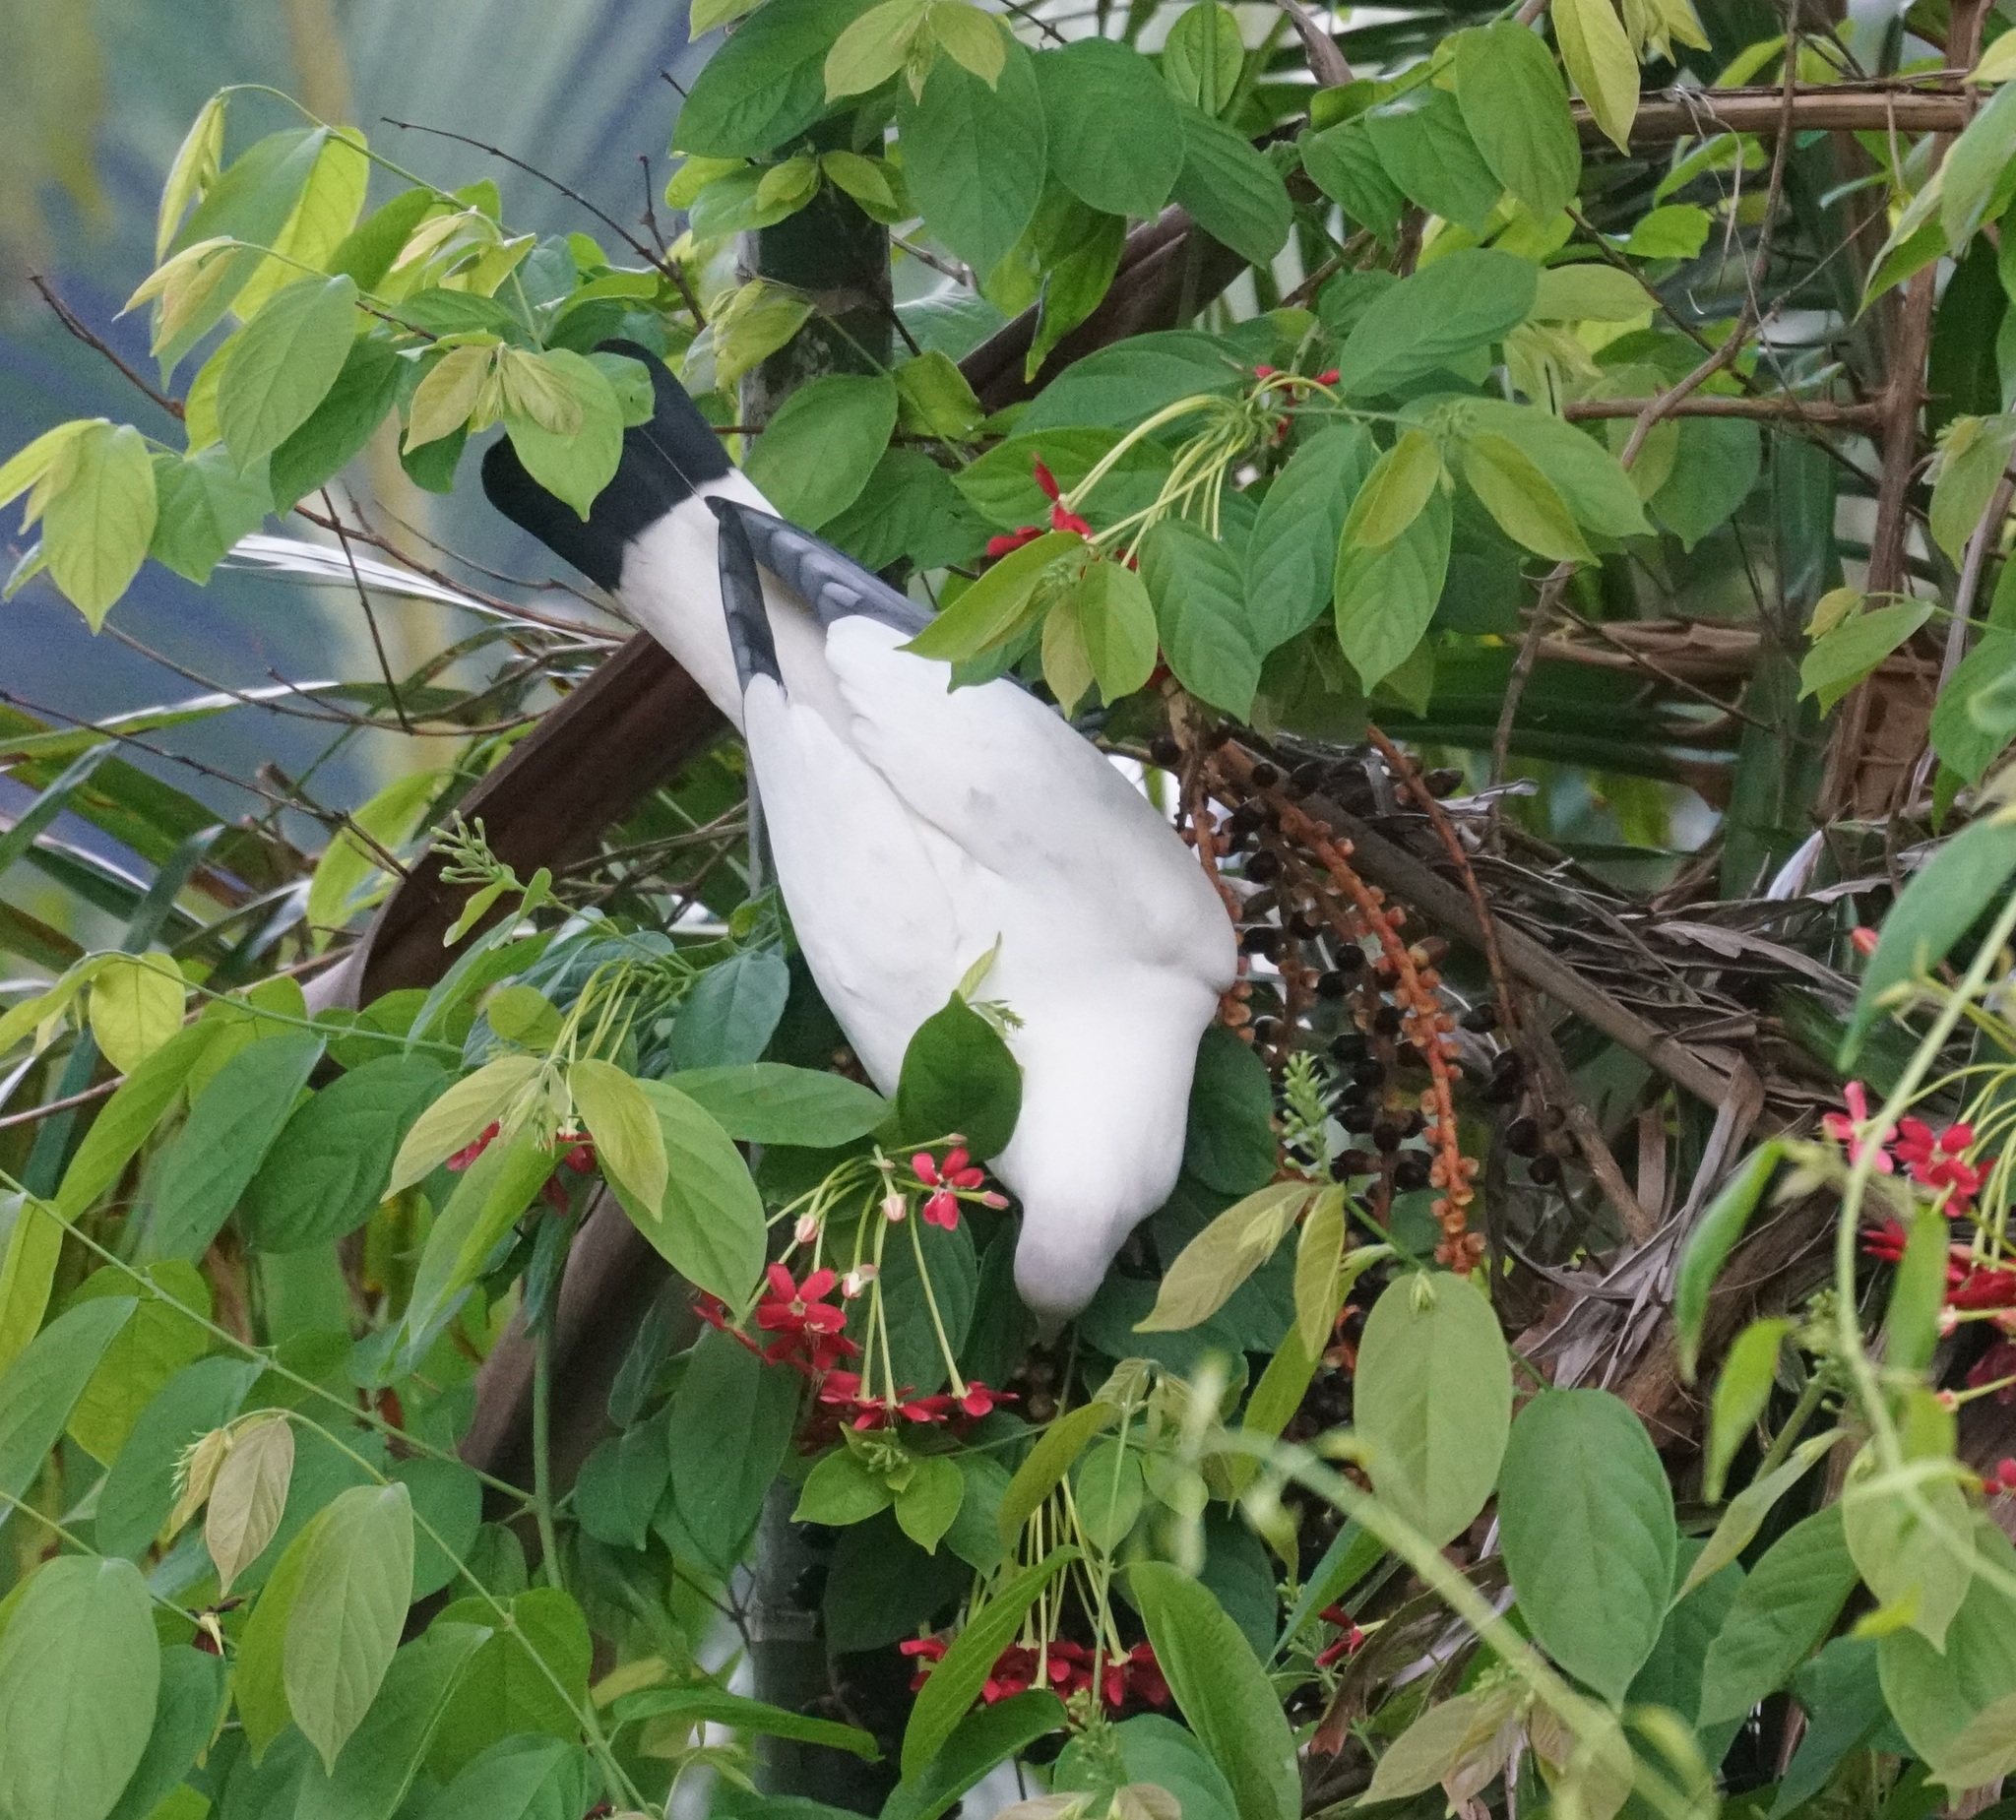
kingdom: Animalia
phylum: Chordata
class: Aves
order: Columbiformes
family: Columbidae
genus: Ducula
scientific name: Ducula spilorrhoa
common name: Torresian imperial pigeon
